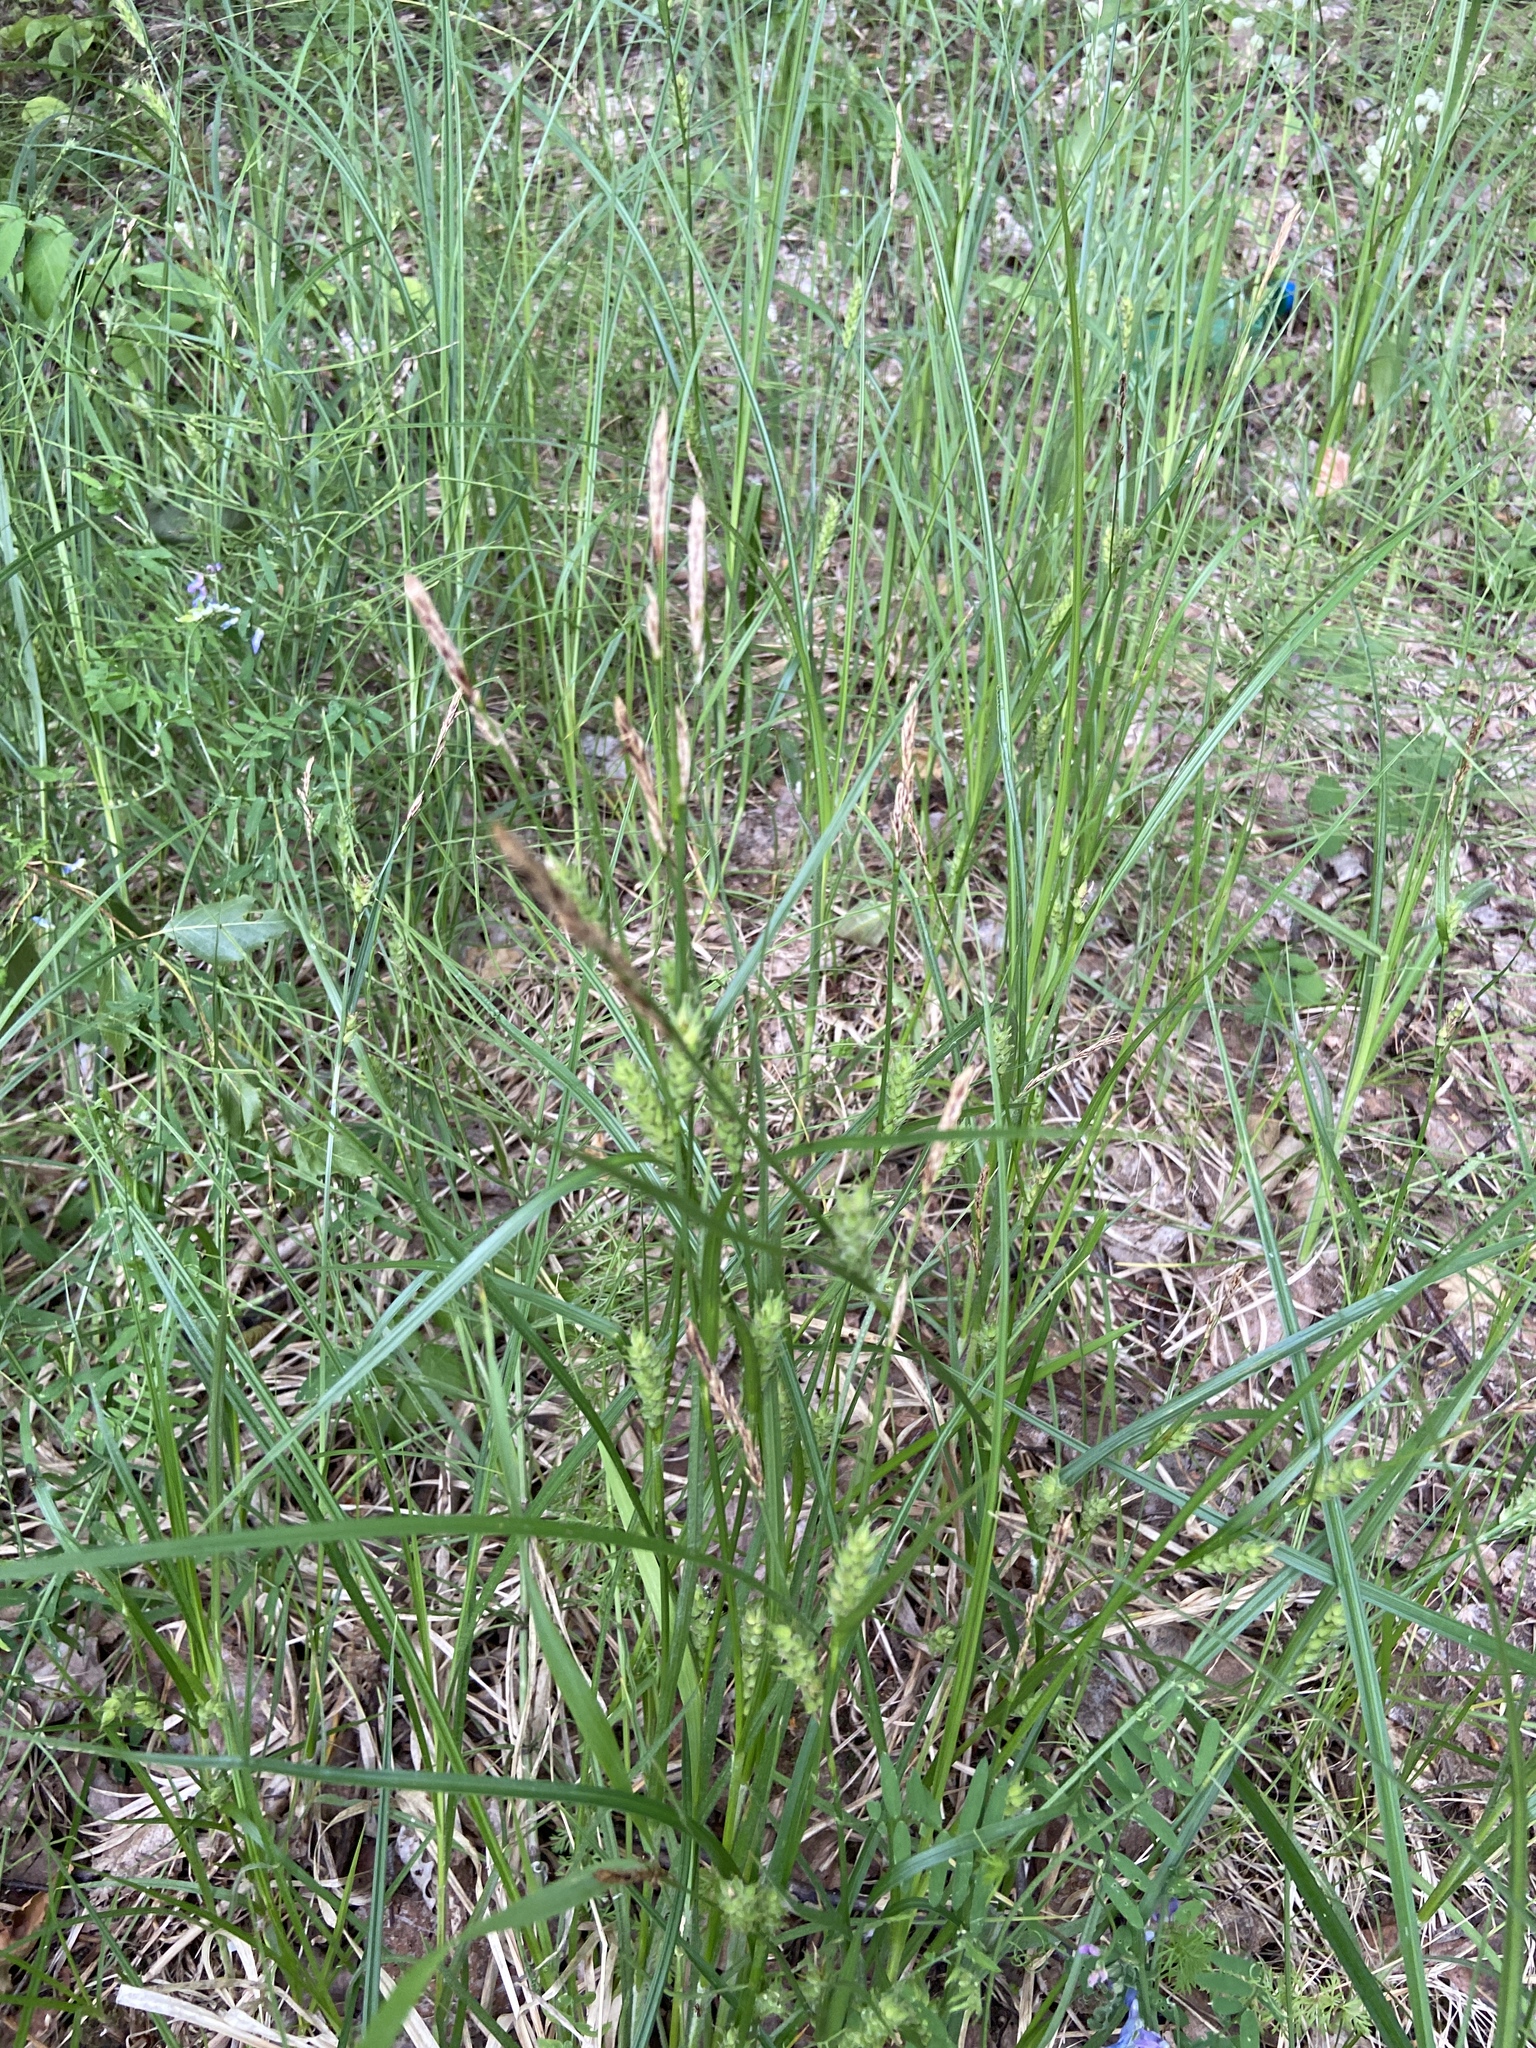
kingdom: Plantae
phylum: Tracheophyta
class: Liliopsida
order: Poales
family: Cyperaceae
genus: Carex
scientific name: Carex hirta
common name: Hairy sedge
